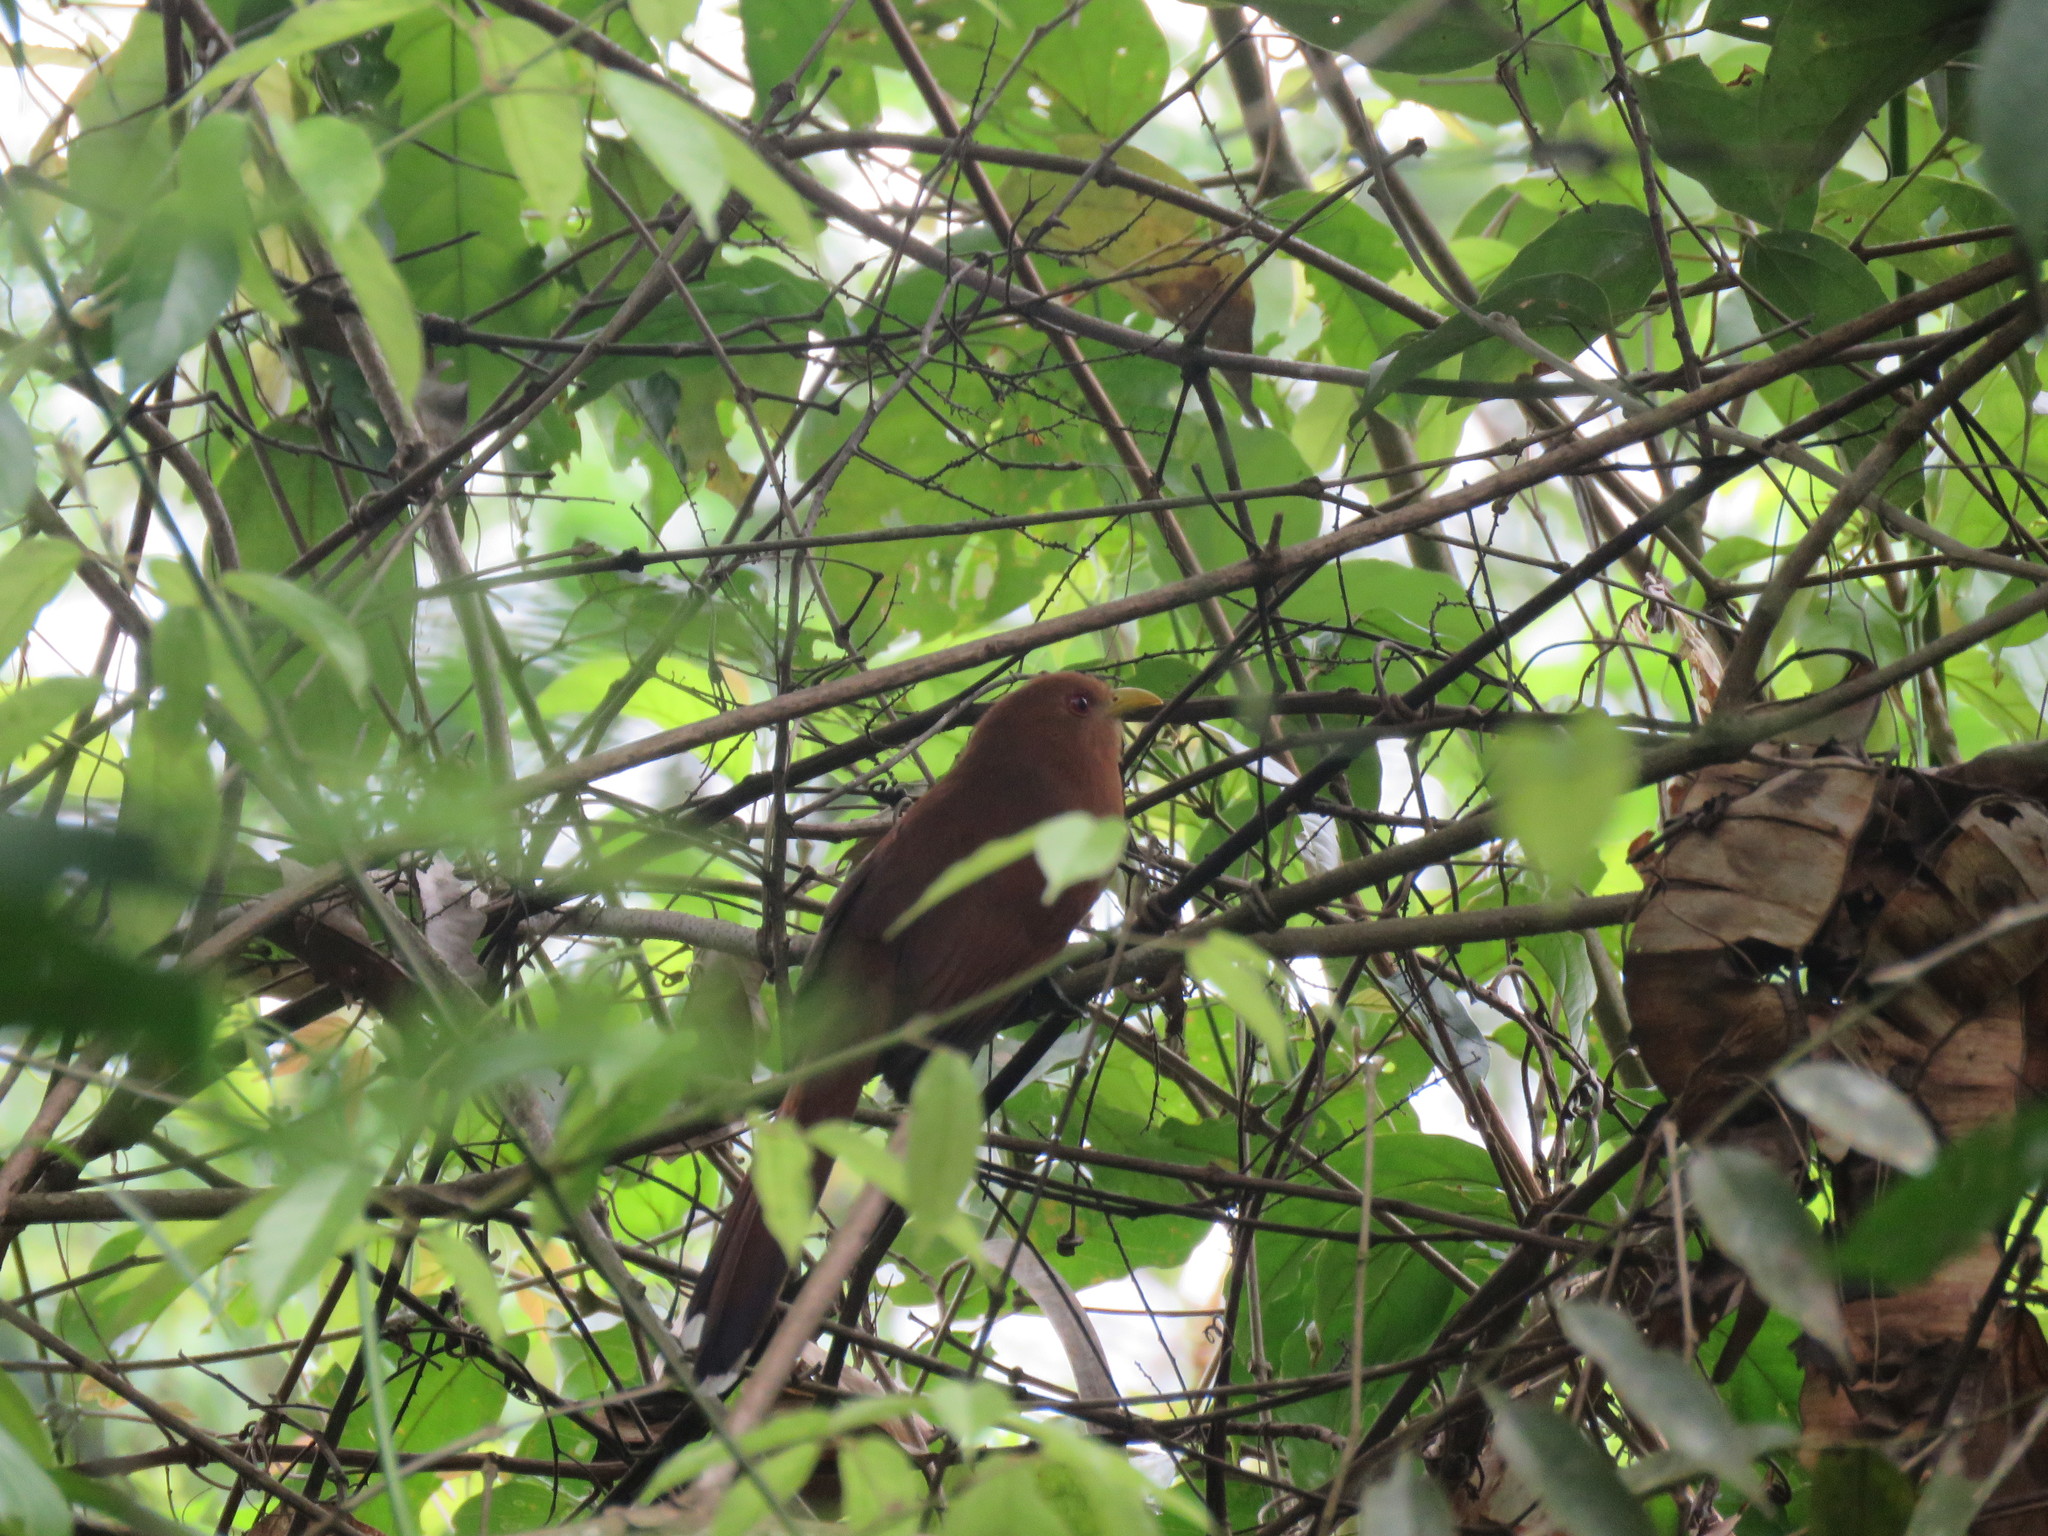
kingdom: Animalia
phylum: Chordata
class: Aves
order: Cuculiformes
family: Cuculidae
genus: Piaya
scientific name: Piaya minuta
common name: Little cuckoo
